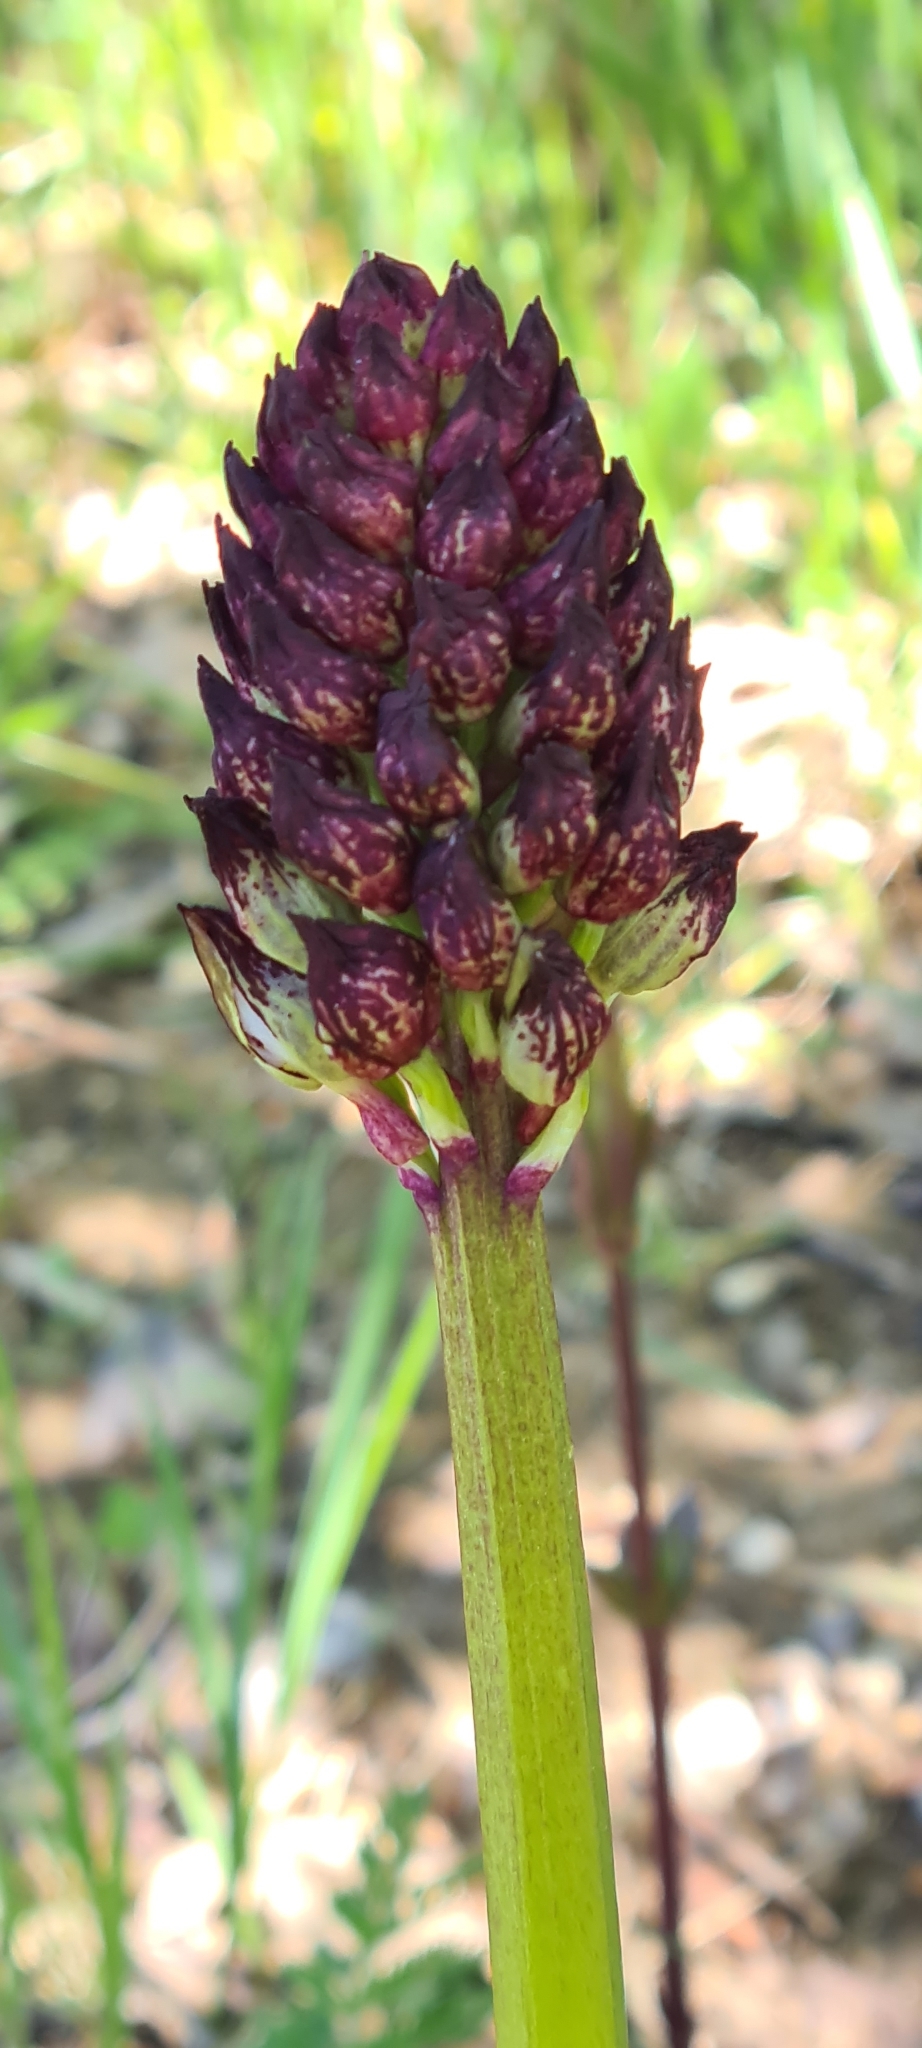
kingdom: Plantae
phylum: Tracheophyta
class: Liliopsida
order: Asparagales
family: Orchidaceae
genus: Orchis
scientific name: Orchis purpurea
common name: Lady orchid
